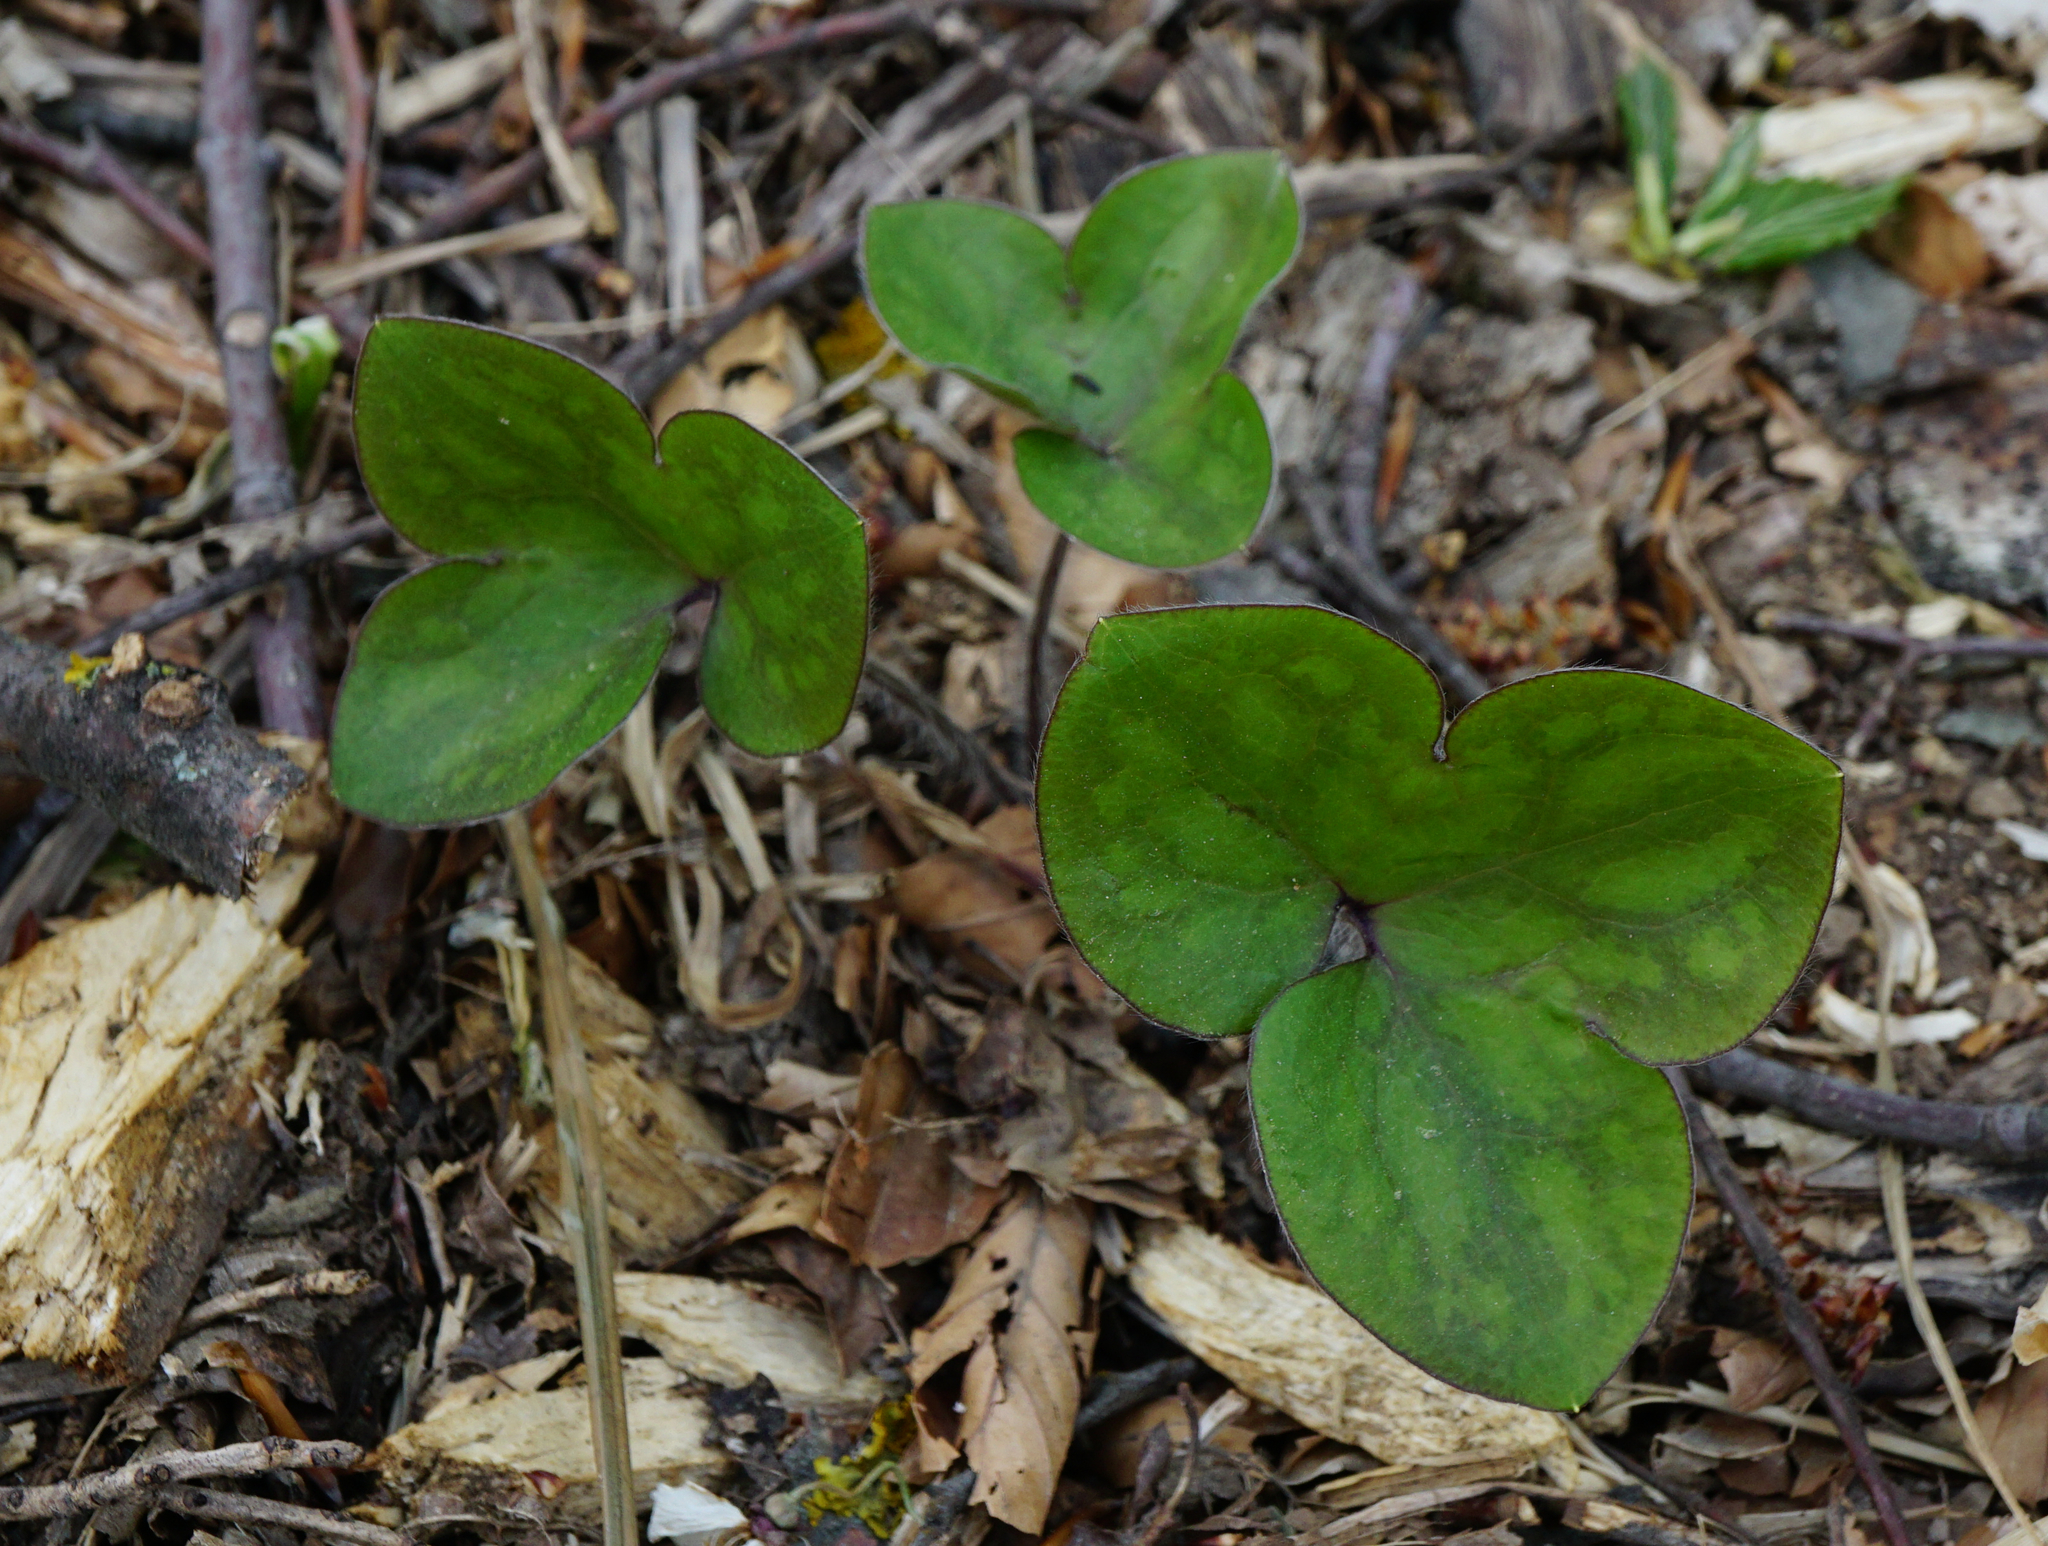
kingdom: Plantae
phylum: Tracheophyta
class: Magnoliopsida
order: Ranunculales
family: Ranunculaceae
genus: Hepatica
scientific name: Hepatica nobilis
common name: Liverleaf
